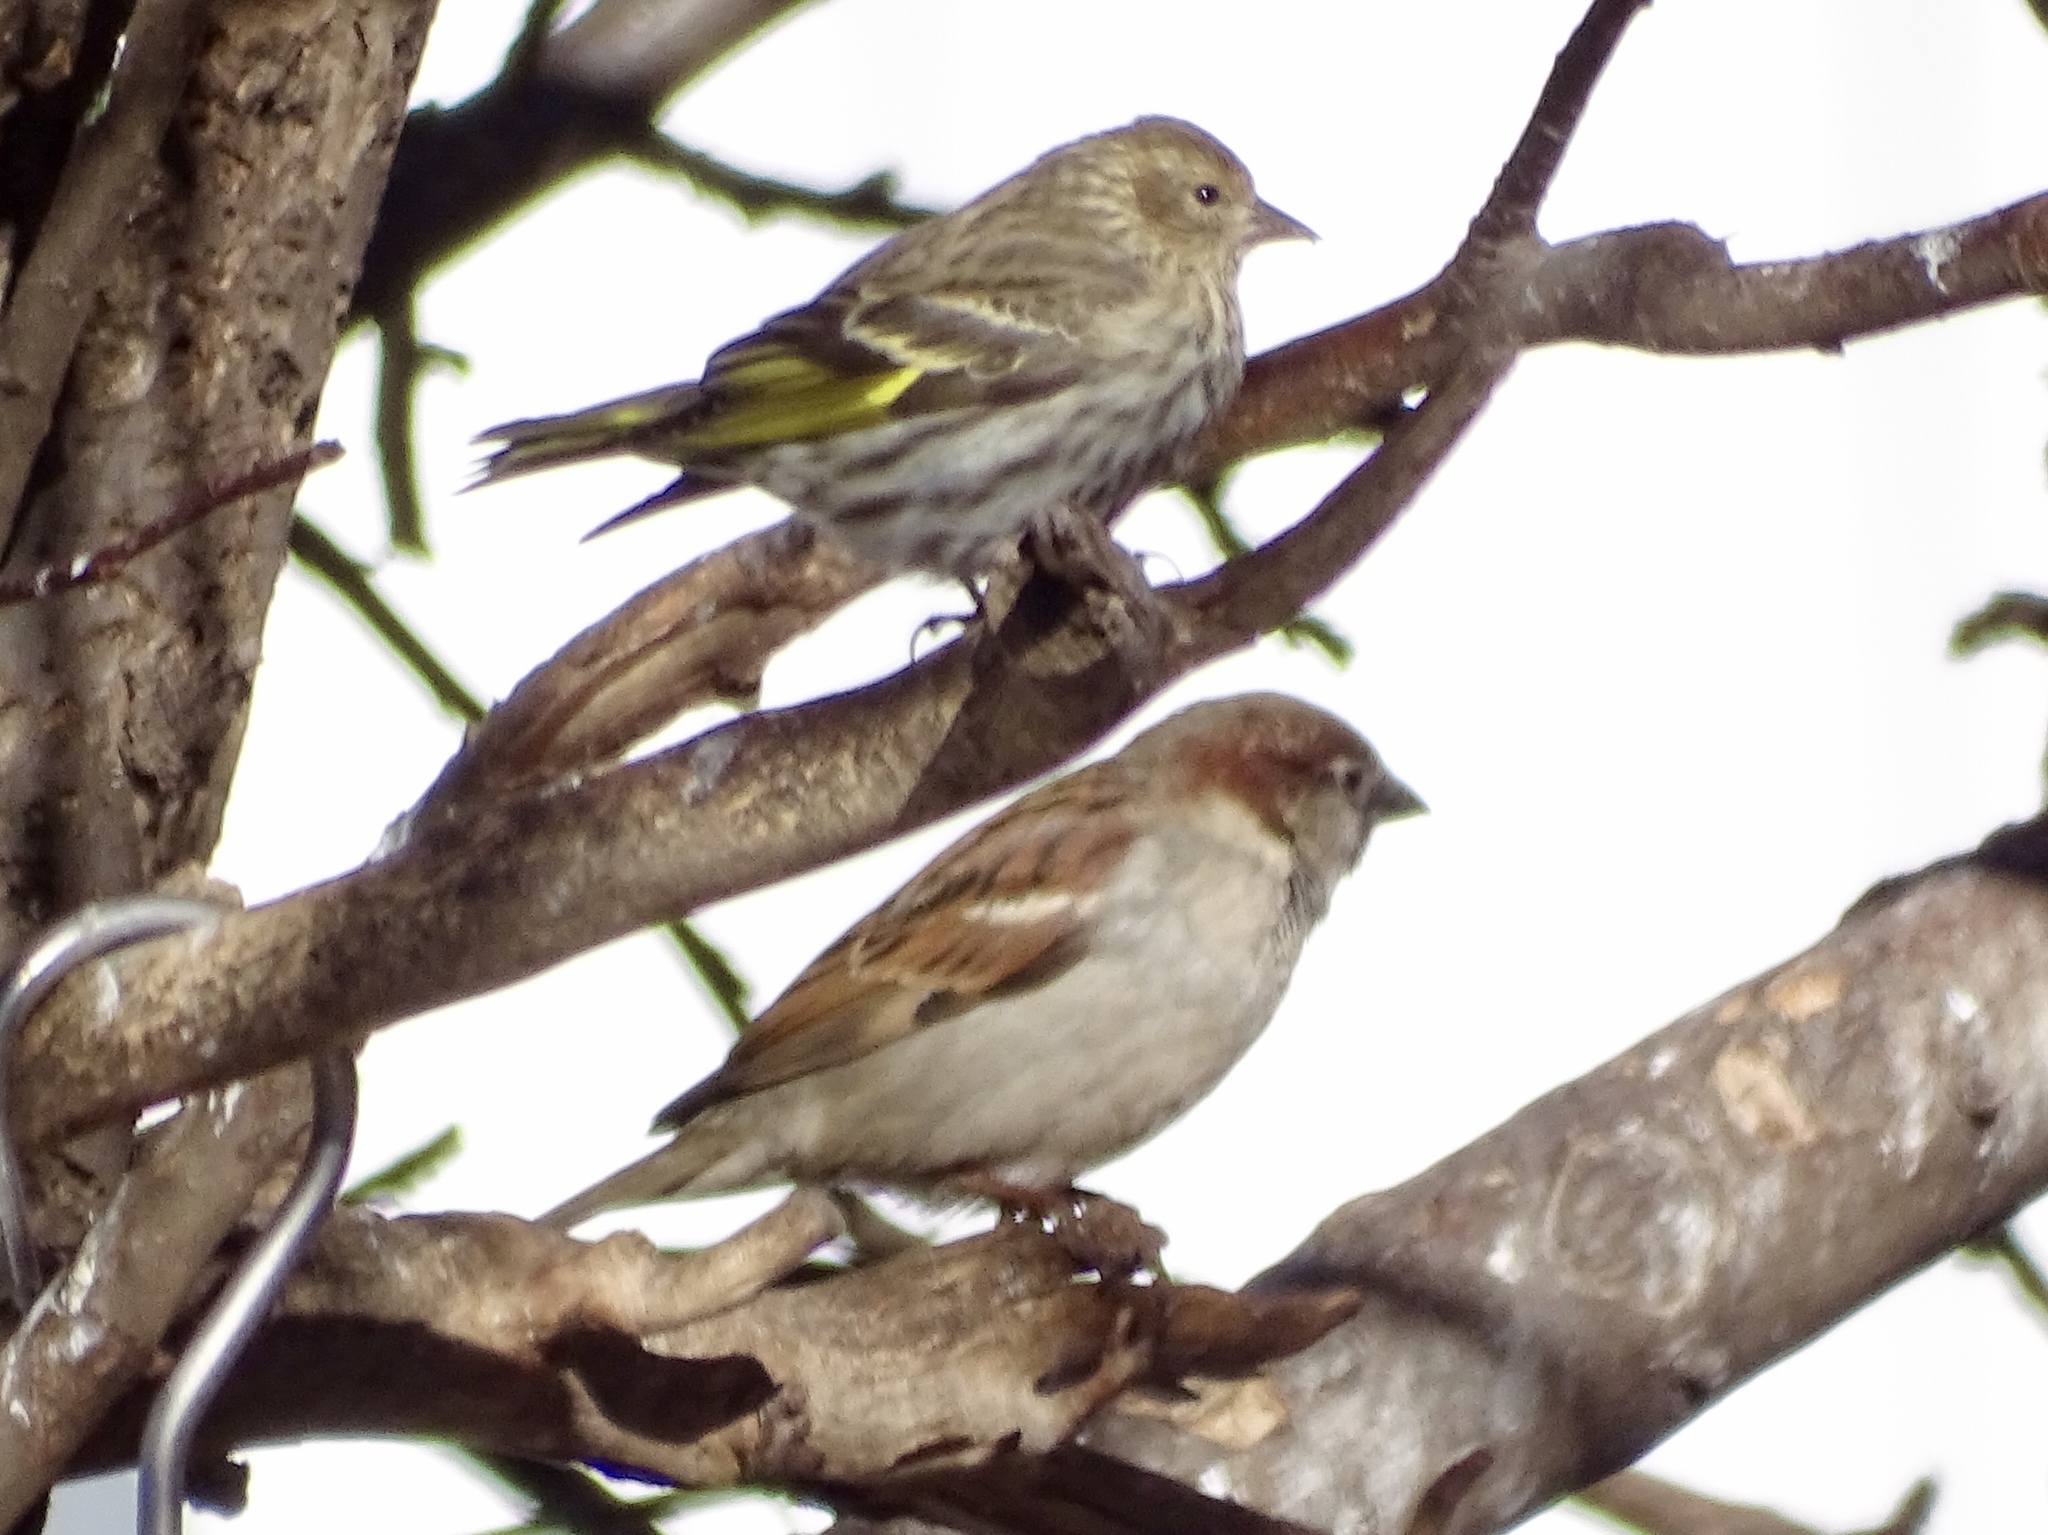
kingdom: Animalia
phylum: Chordata
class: Aves
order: Passeriformes
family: Fringillidae
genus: Spinus
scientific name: Spinus pinus
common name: Pine siskin
